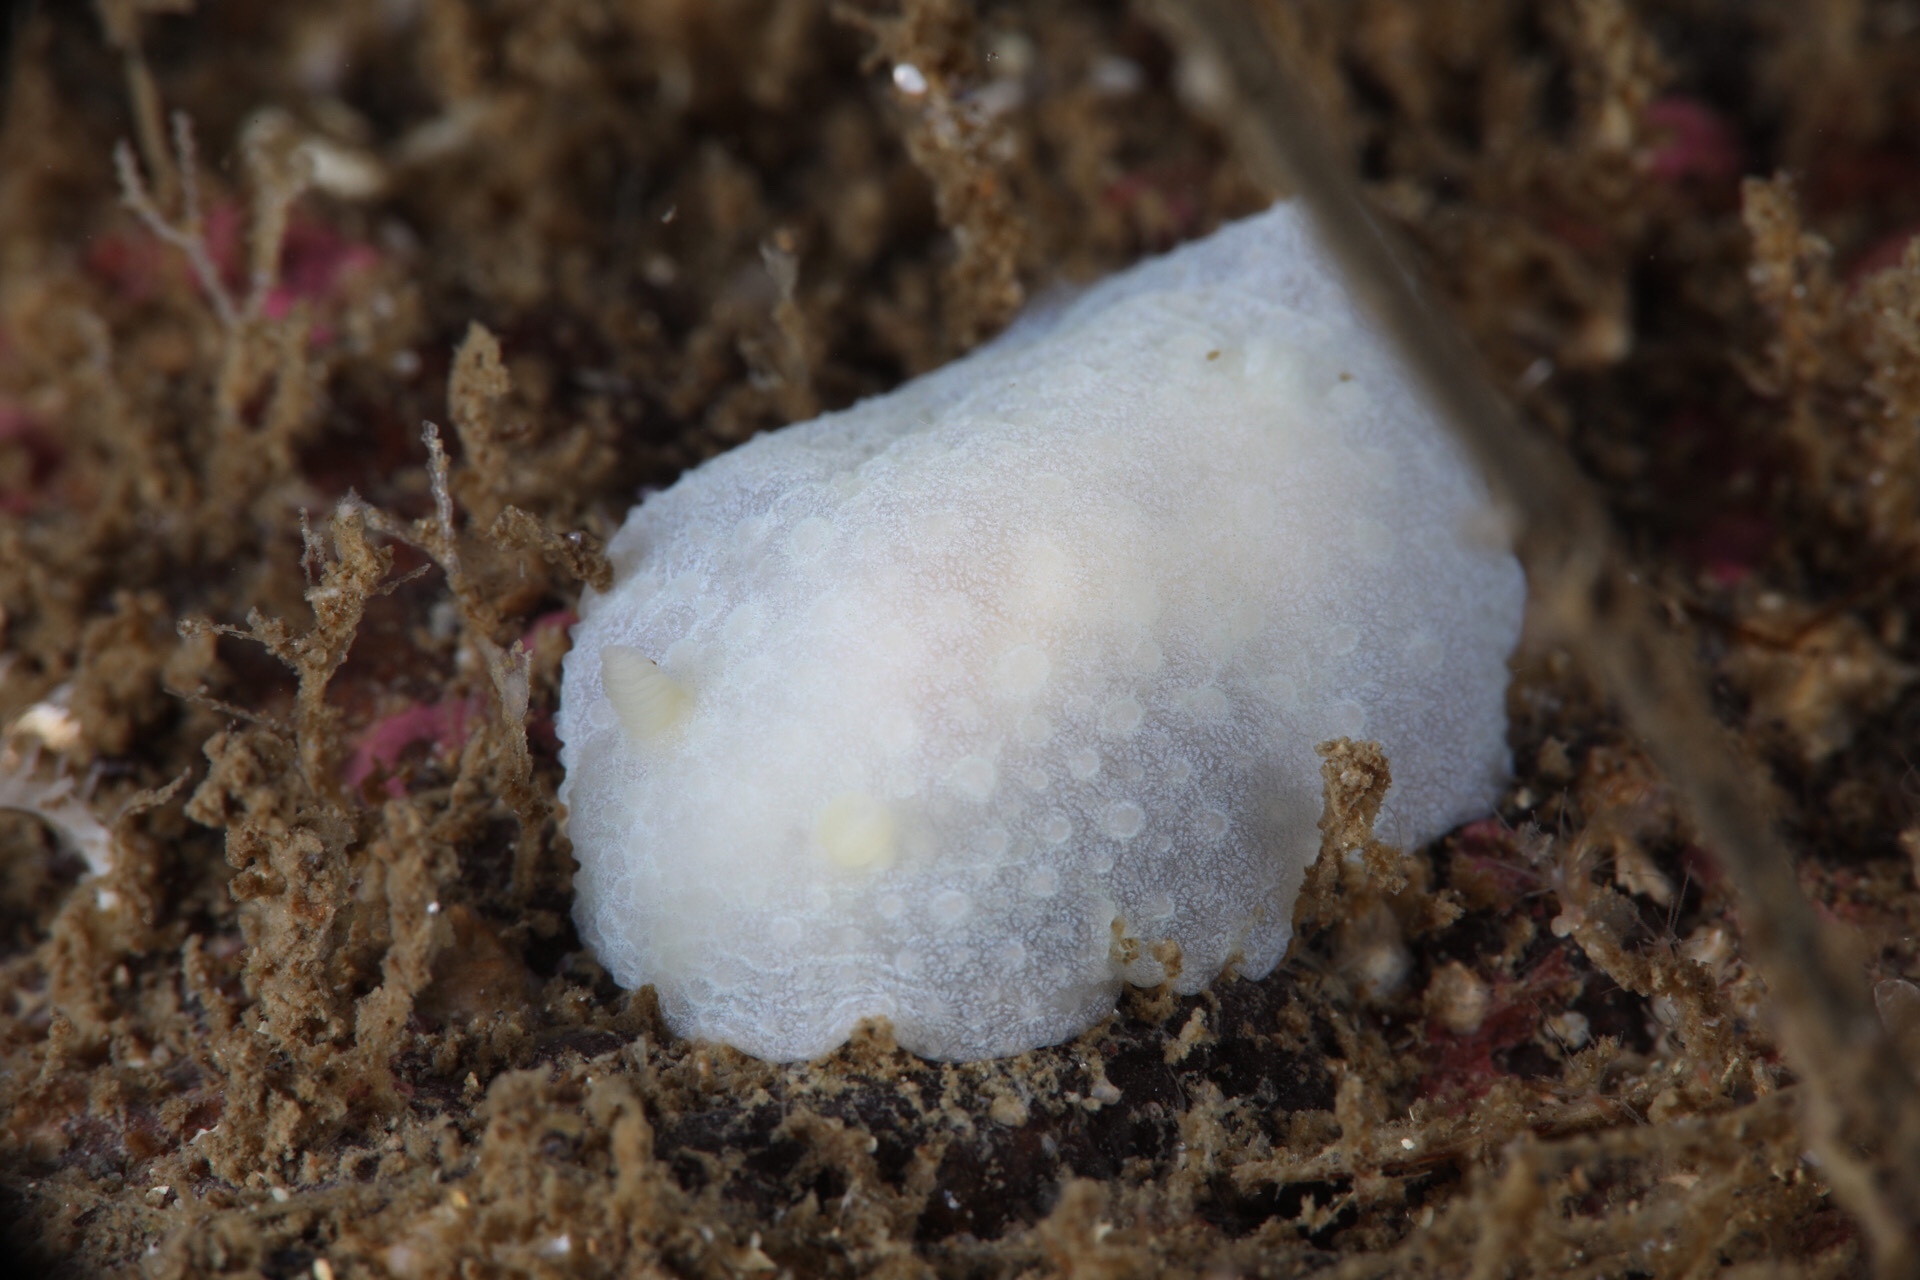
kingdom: Animalia
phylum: Mollusca
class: Gastropoda
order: Nudibranchia
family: Cadlinidae
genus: Aldisa
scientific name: Aldisa zetlandica
